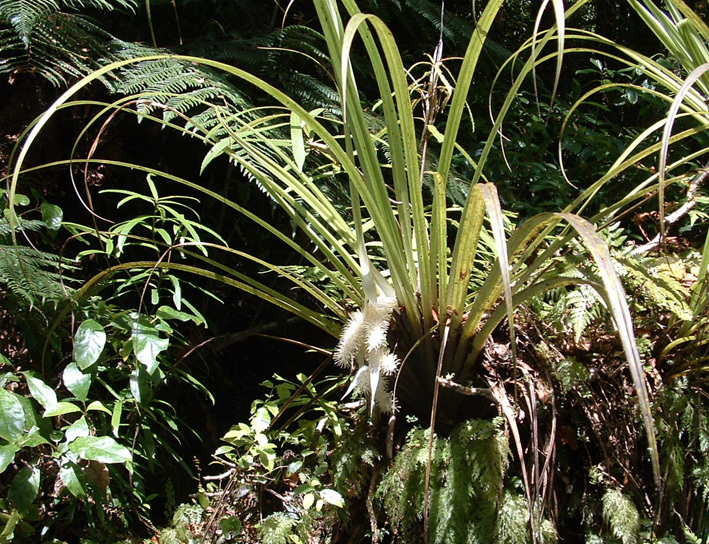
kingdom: Plantae
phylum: Tracheophyta
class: Liliopsida
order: Asparagales
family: Asteliaceae
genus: Astelia
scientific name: Astelia microsperma
